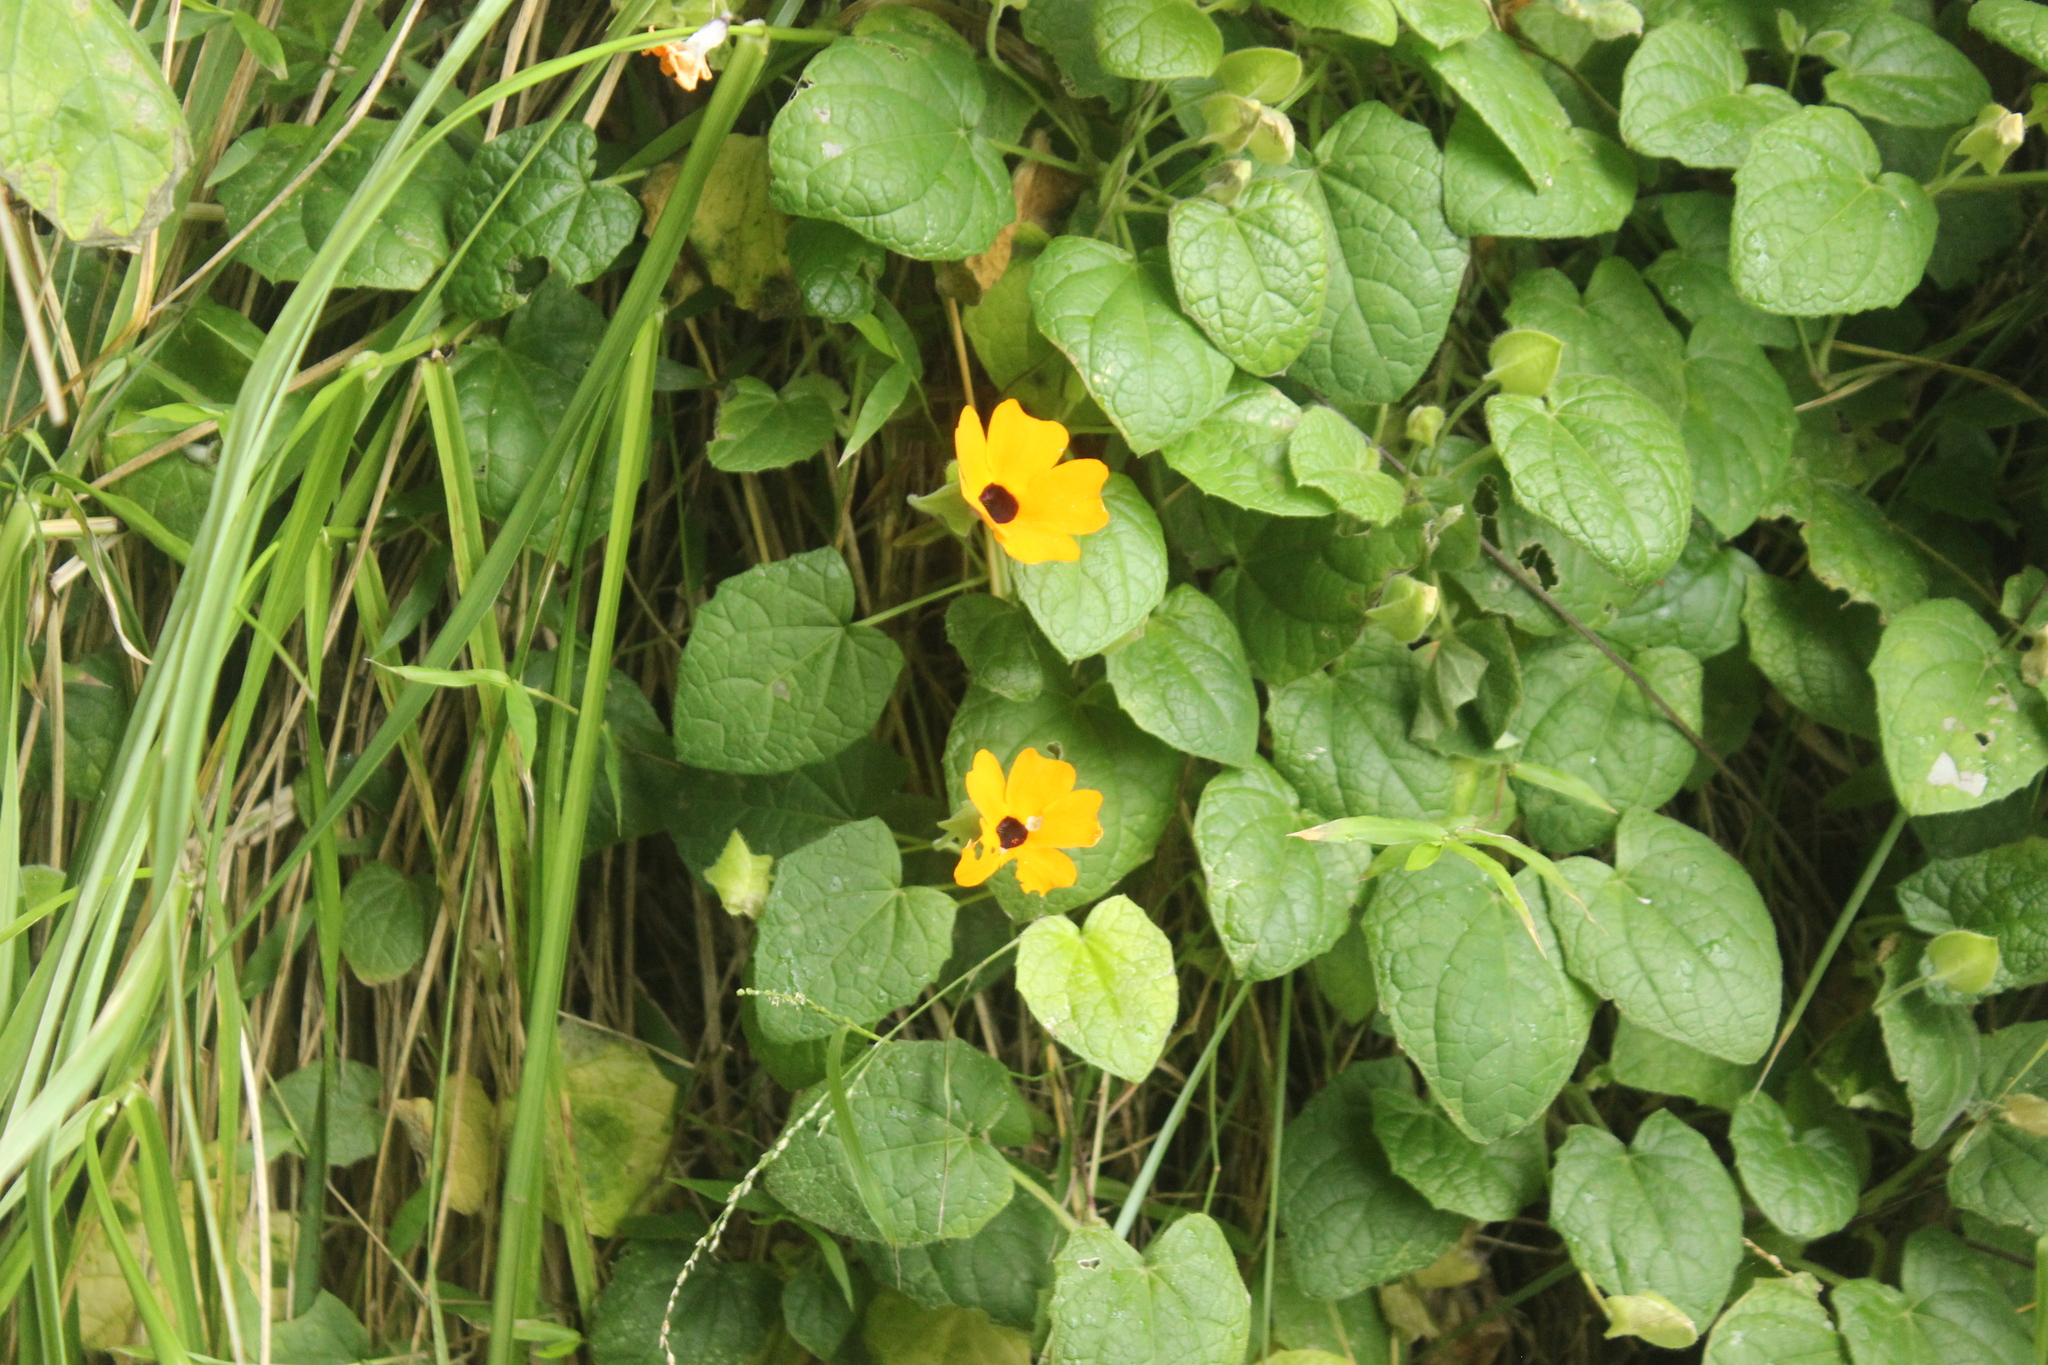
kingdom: Plantae
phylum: Tracheophyta
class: Magnoliopsida
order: Lamiales
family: Acanthaceae
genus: Thunbergia
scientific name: Thunbergia alata
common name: Blackeyed susan vine
